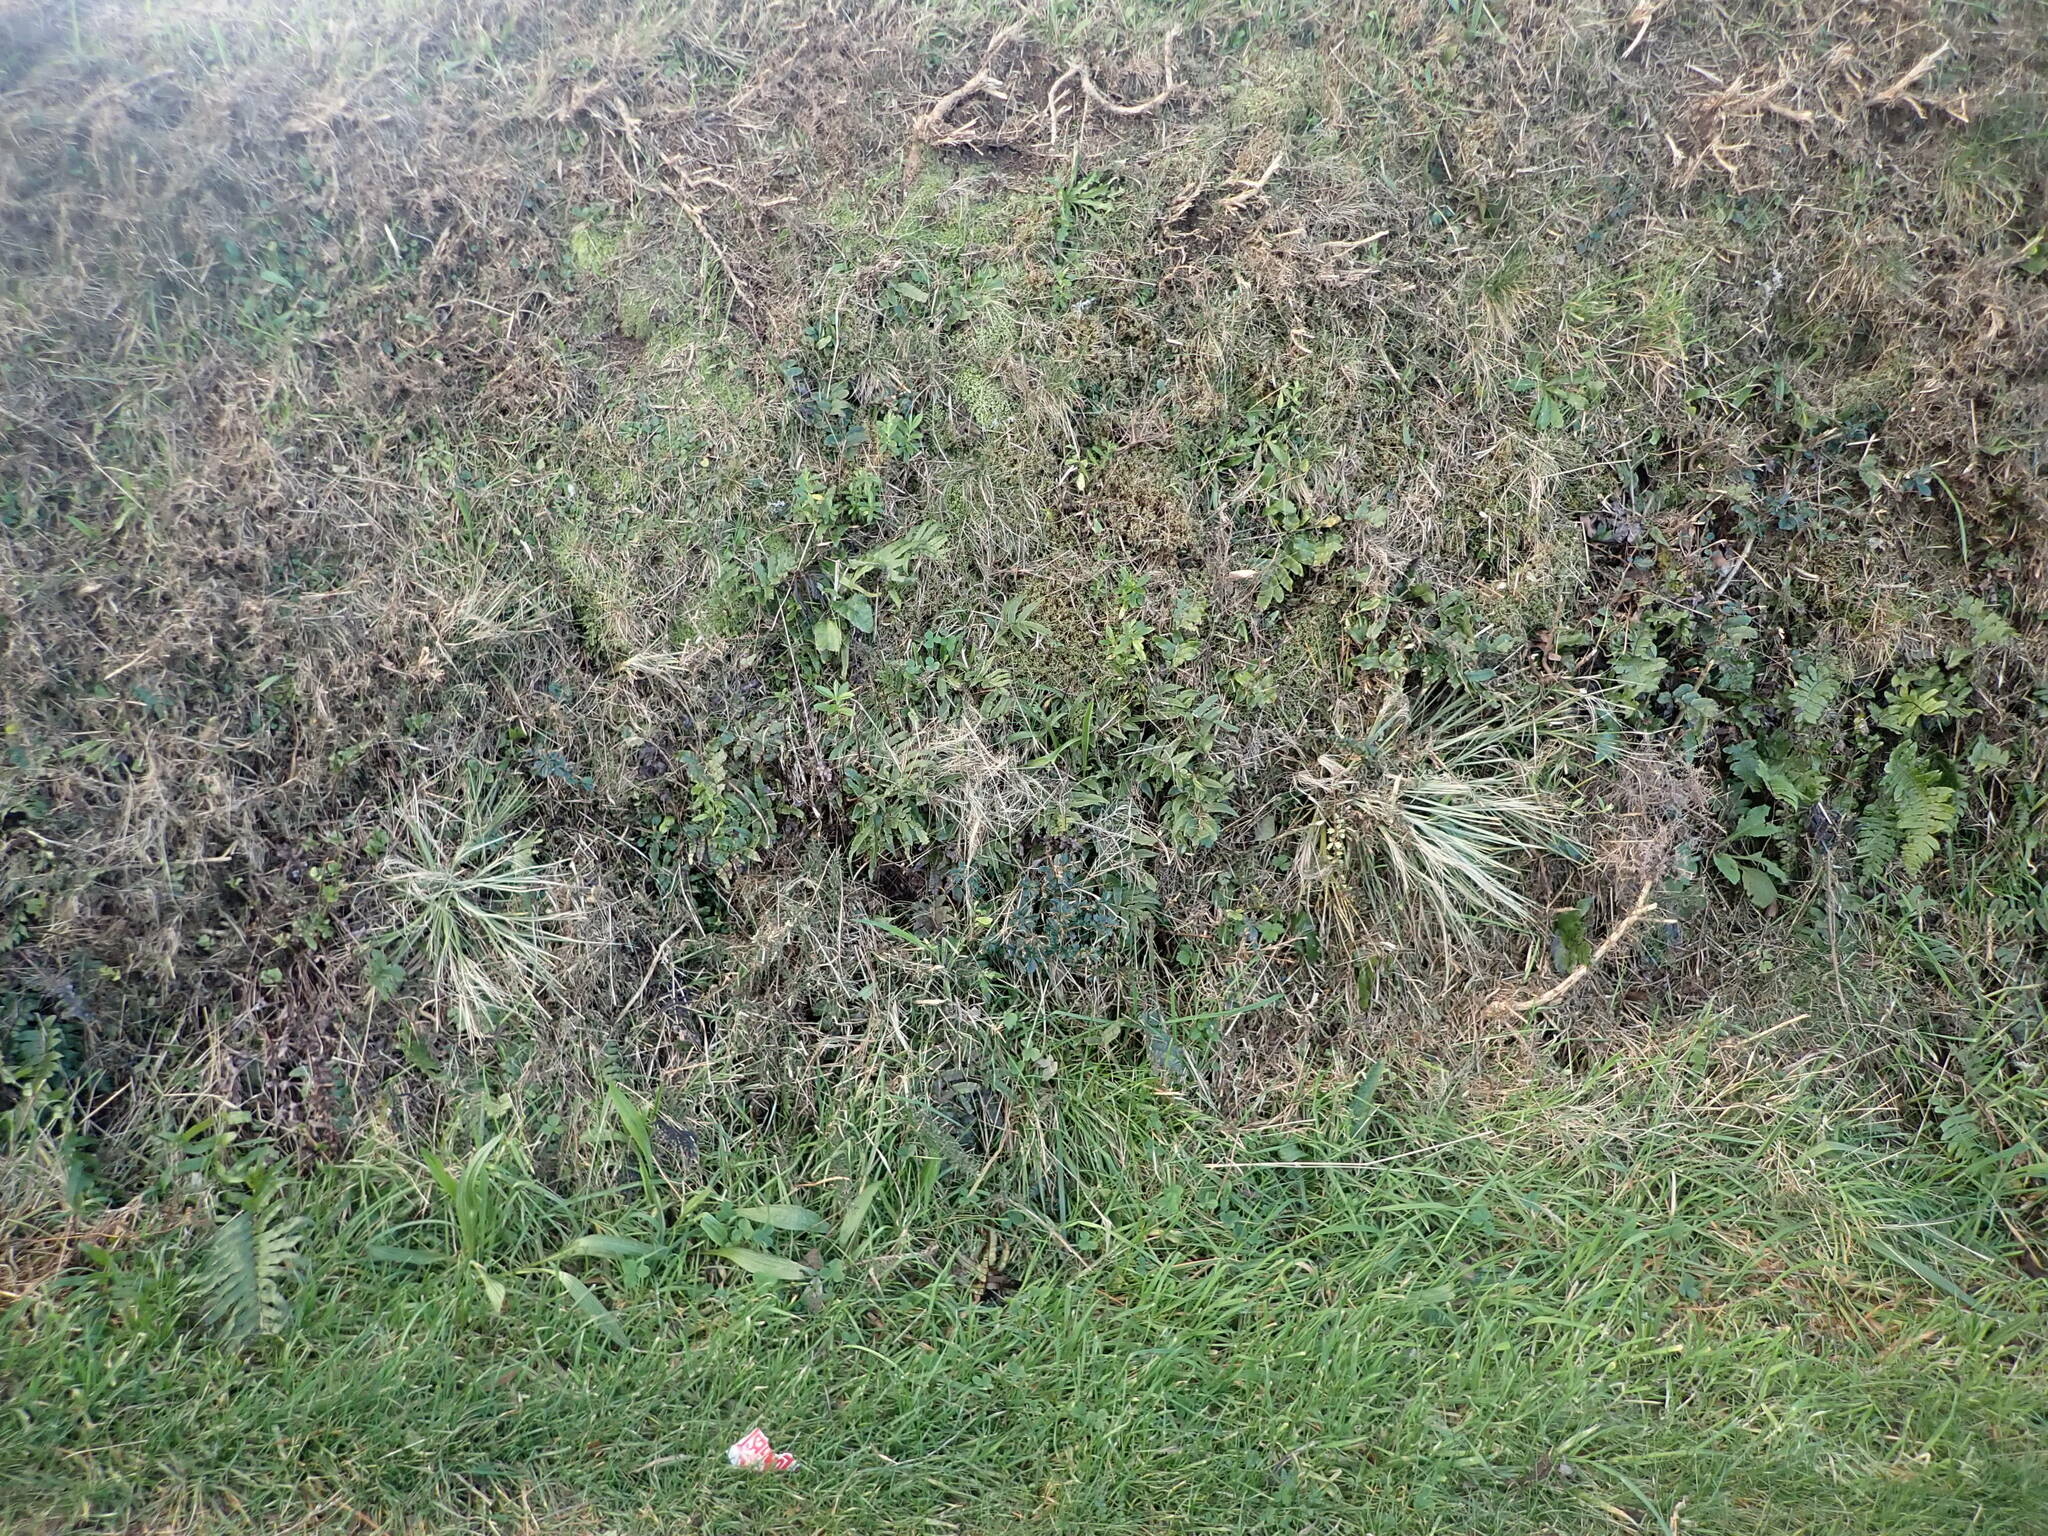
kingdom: Plantae
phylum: Tracheophyta
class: Magnoliopsida
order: Apiales
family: Apiaceae
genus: Aciphylla
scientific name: Aciphylla squarrosa
